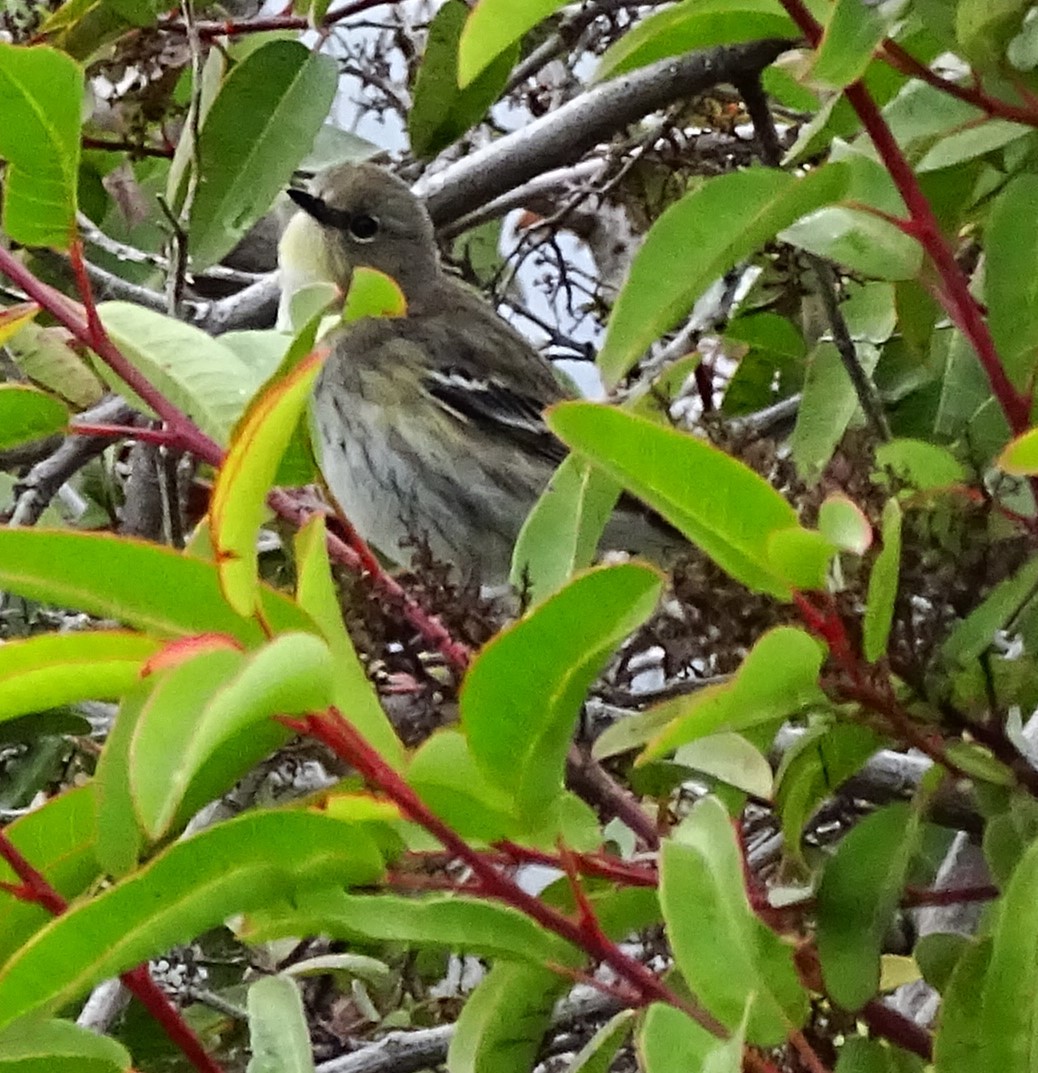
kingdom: Animalia
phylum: Chordata
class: Aves
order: Passeriformes
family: Parulidae
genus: Setophaga
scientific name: Setophaga coronata
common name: Myrtle warbler
